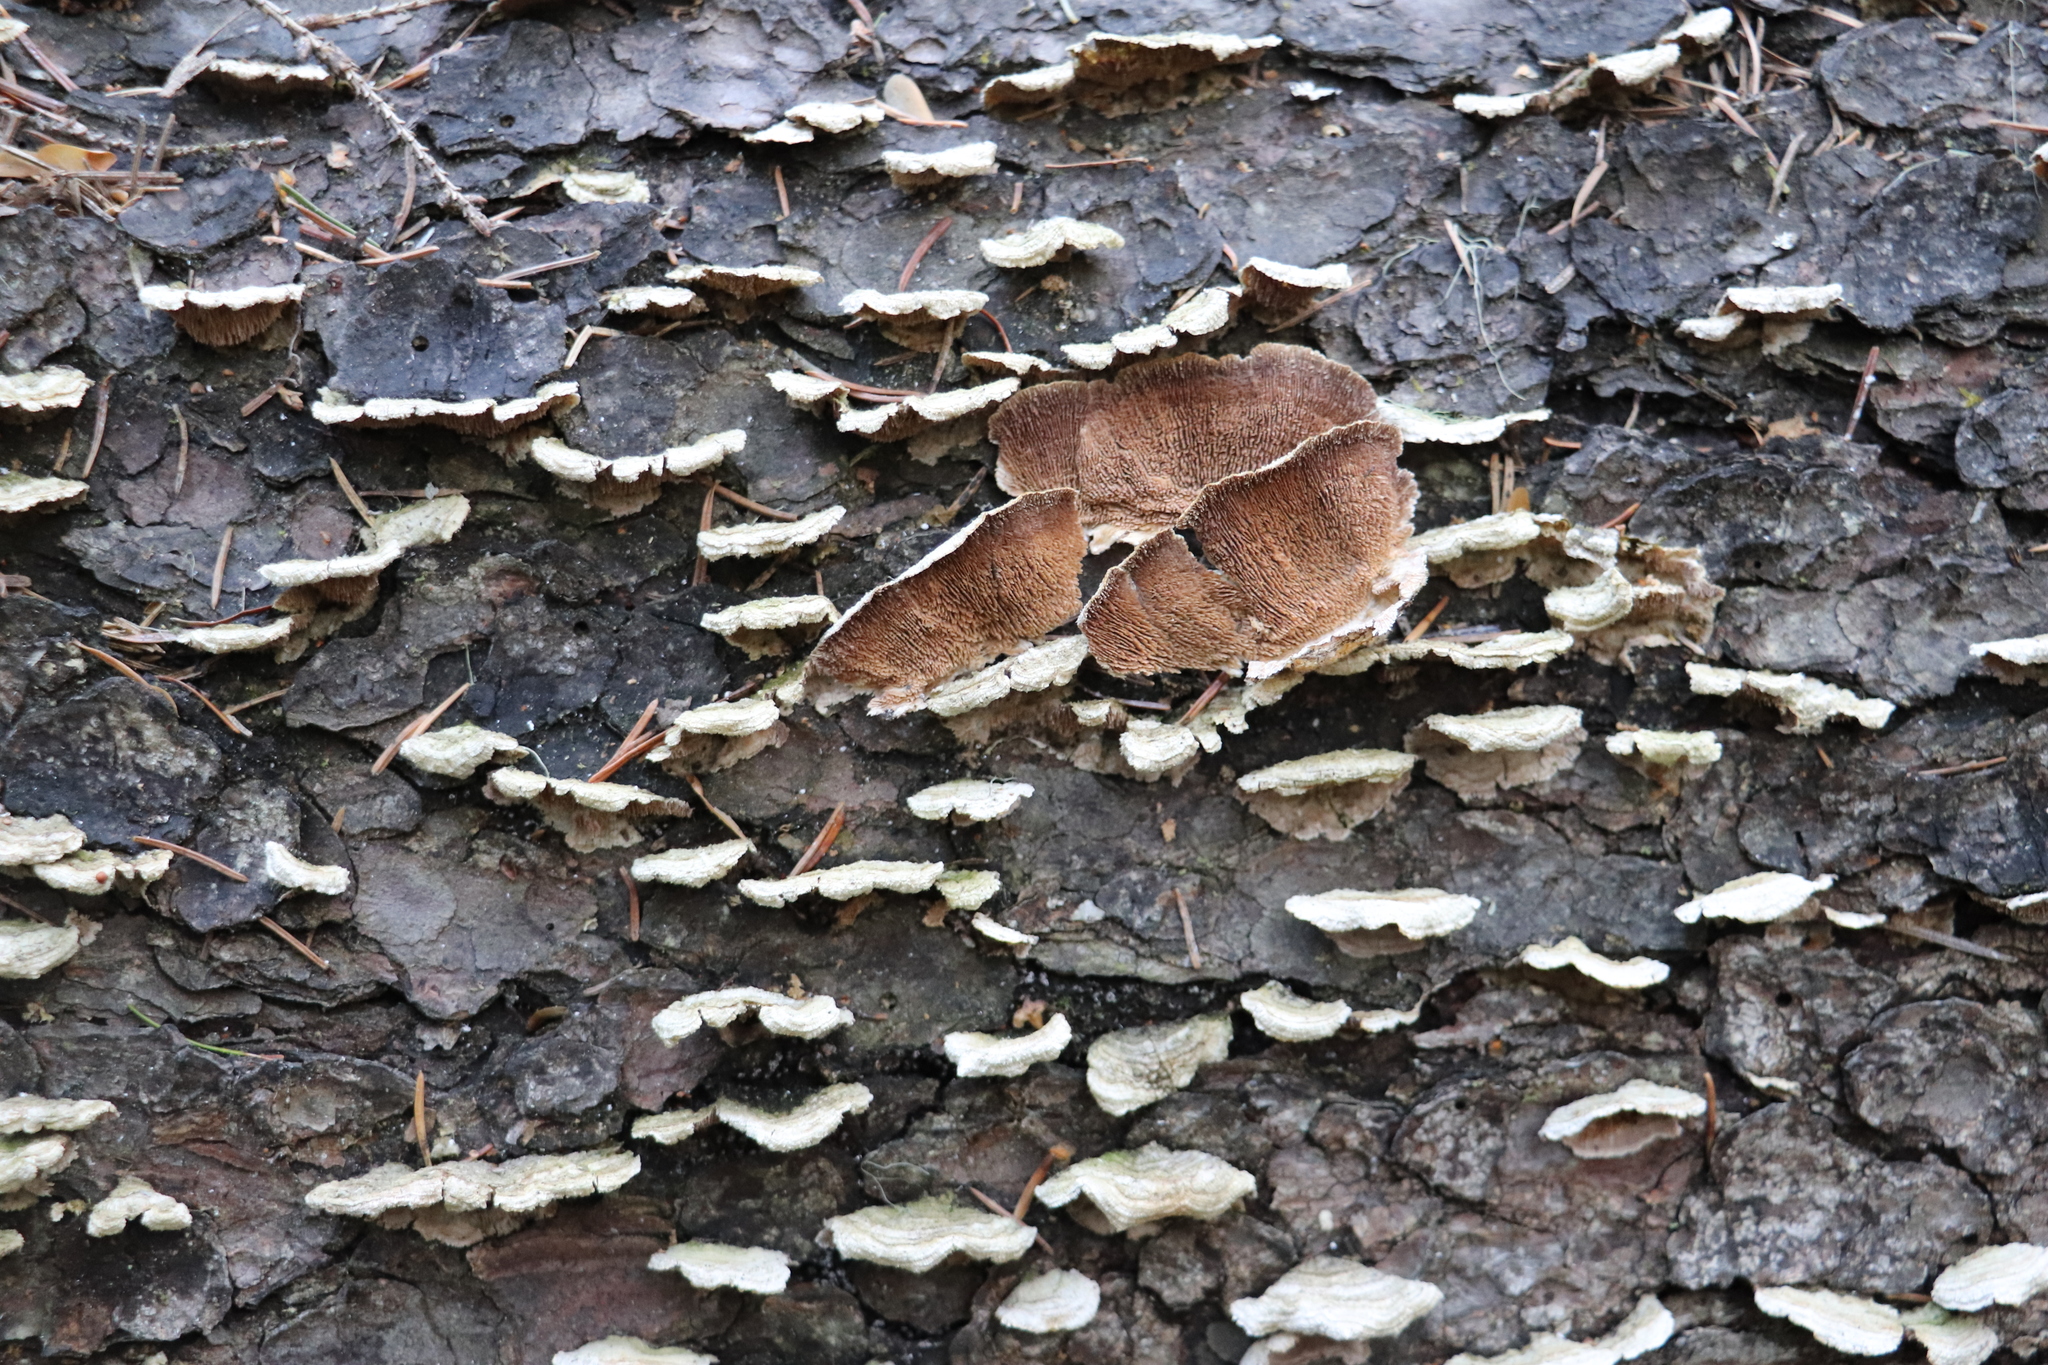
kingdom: Fungi
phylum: Basidiomycota
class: Agaricomycetes
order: Hymenochaetales
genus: Trichaptum
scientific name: Trichaptum fuscoviolaceum
